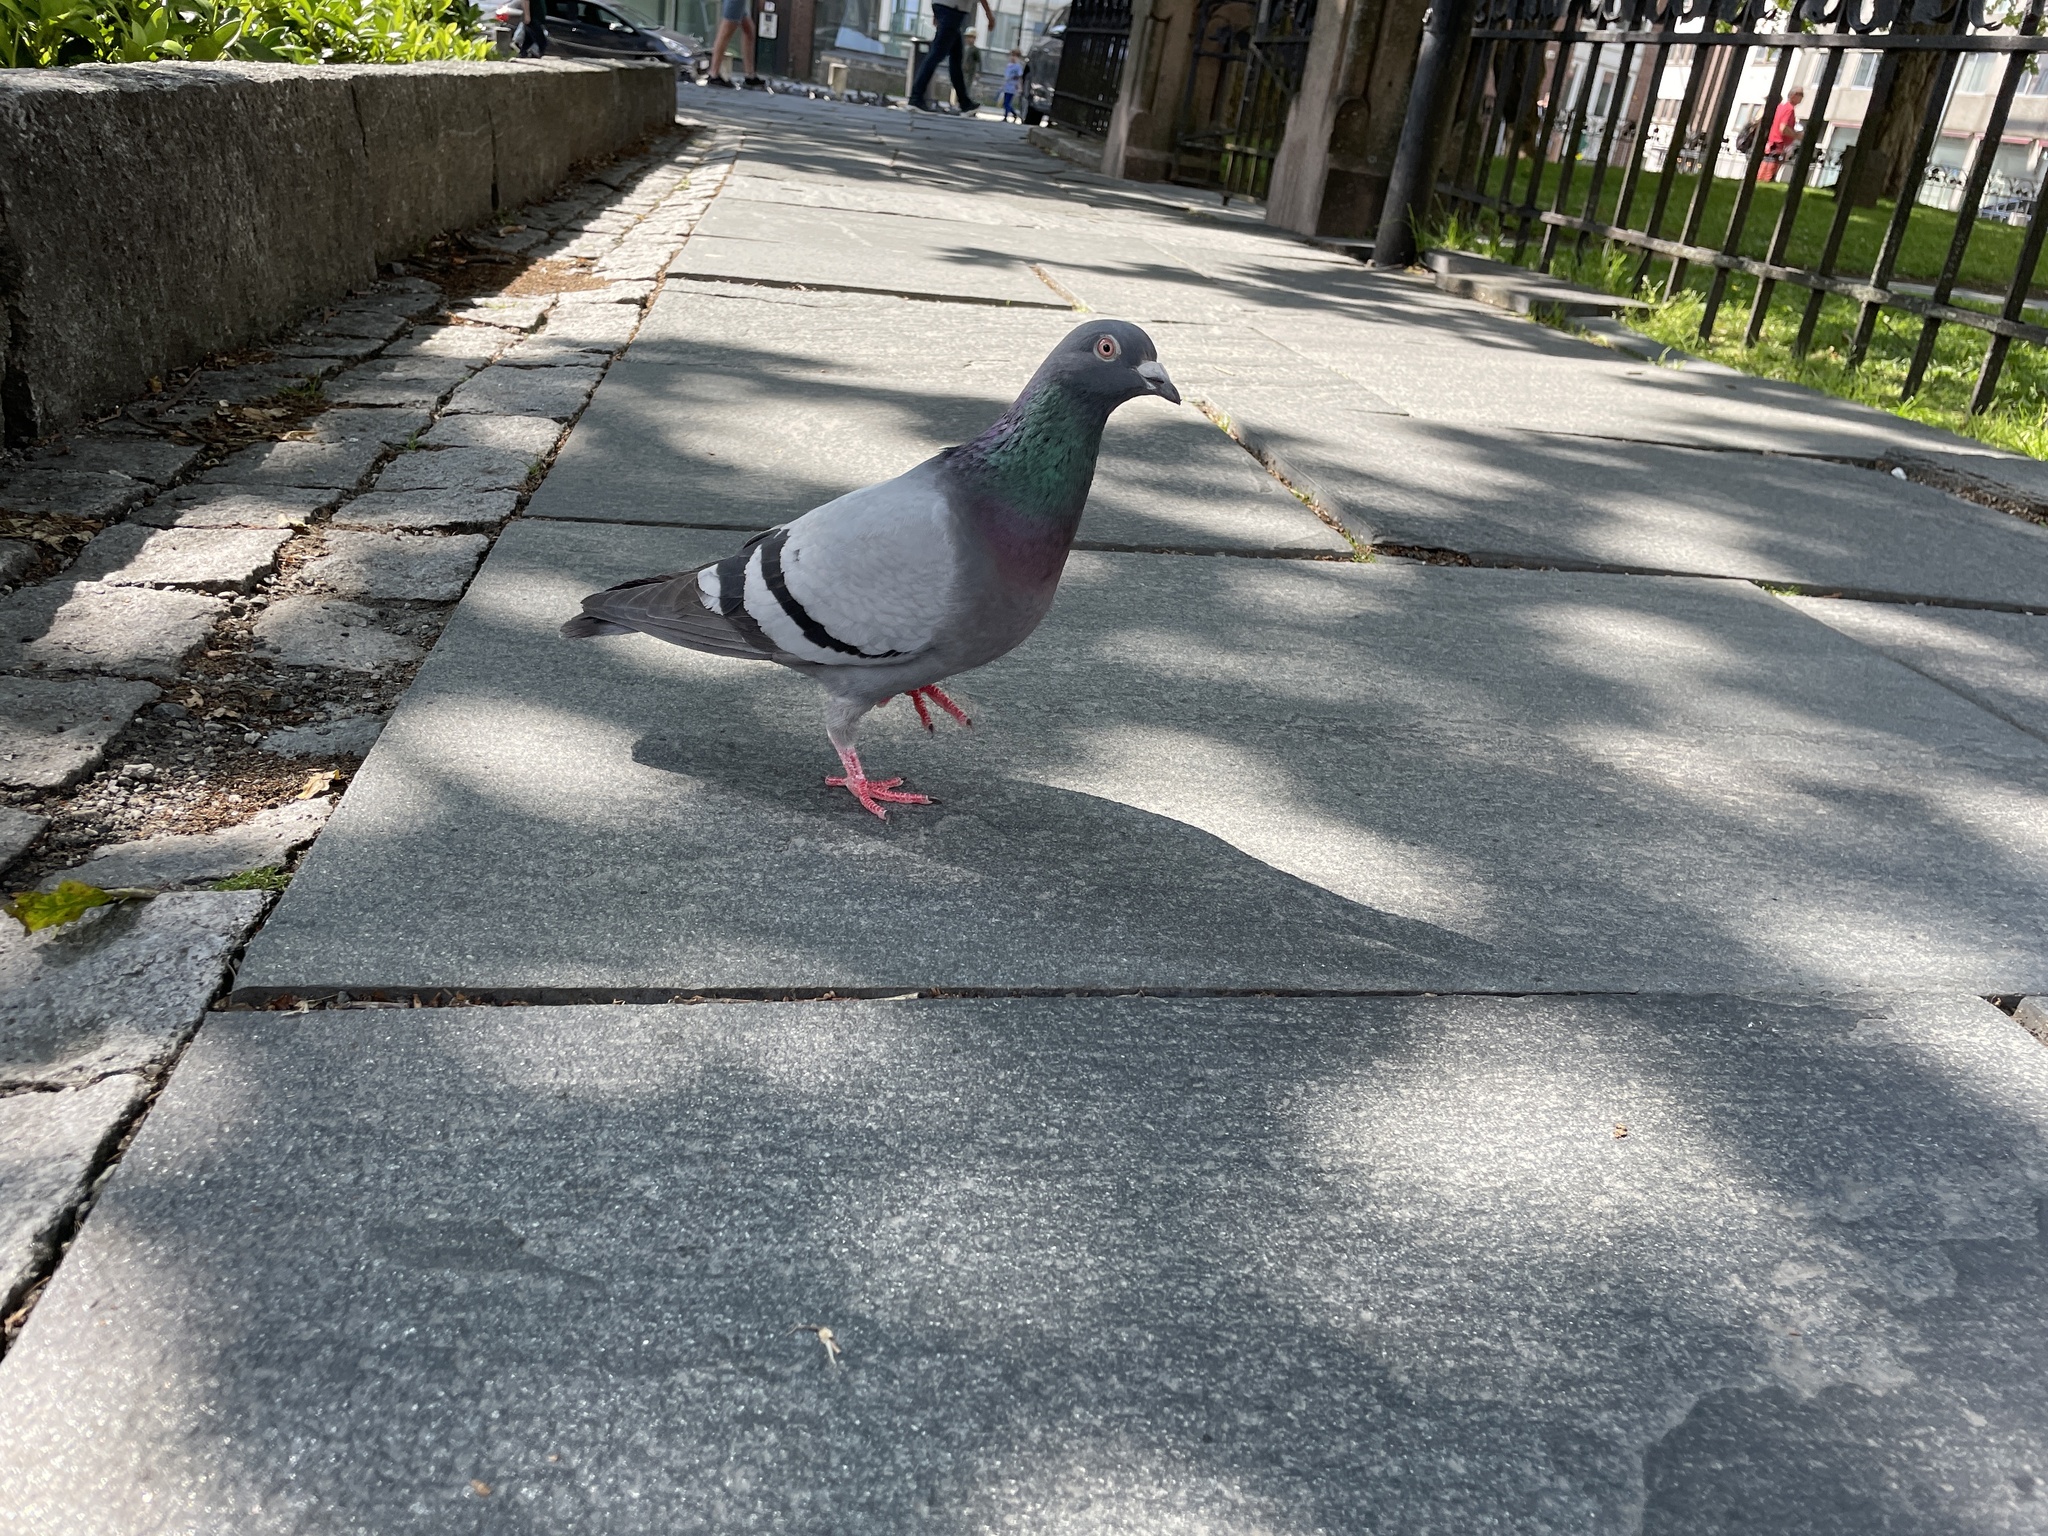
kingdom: Animalia
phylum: Chordata
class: Aves
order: Columbiformes
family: Columbidae
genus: Columba
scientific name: Columba livia
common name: Rock pigeon
